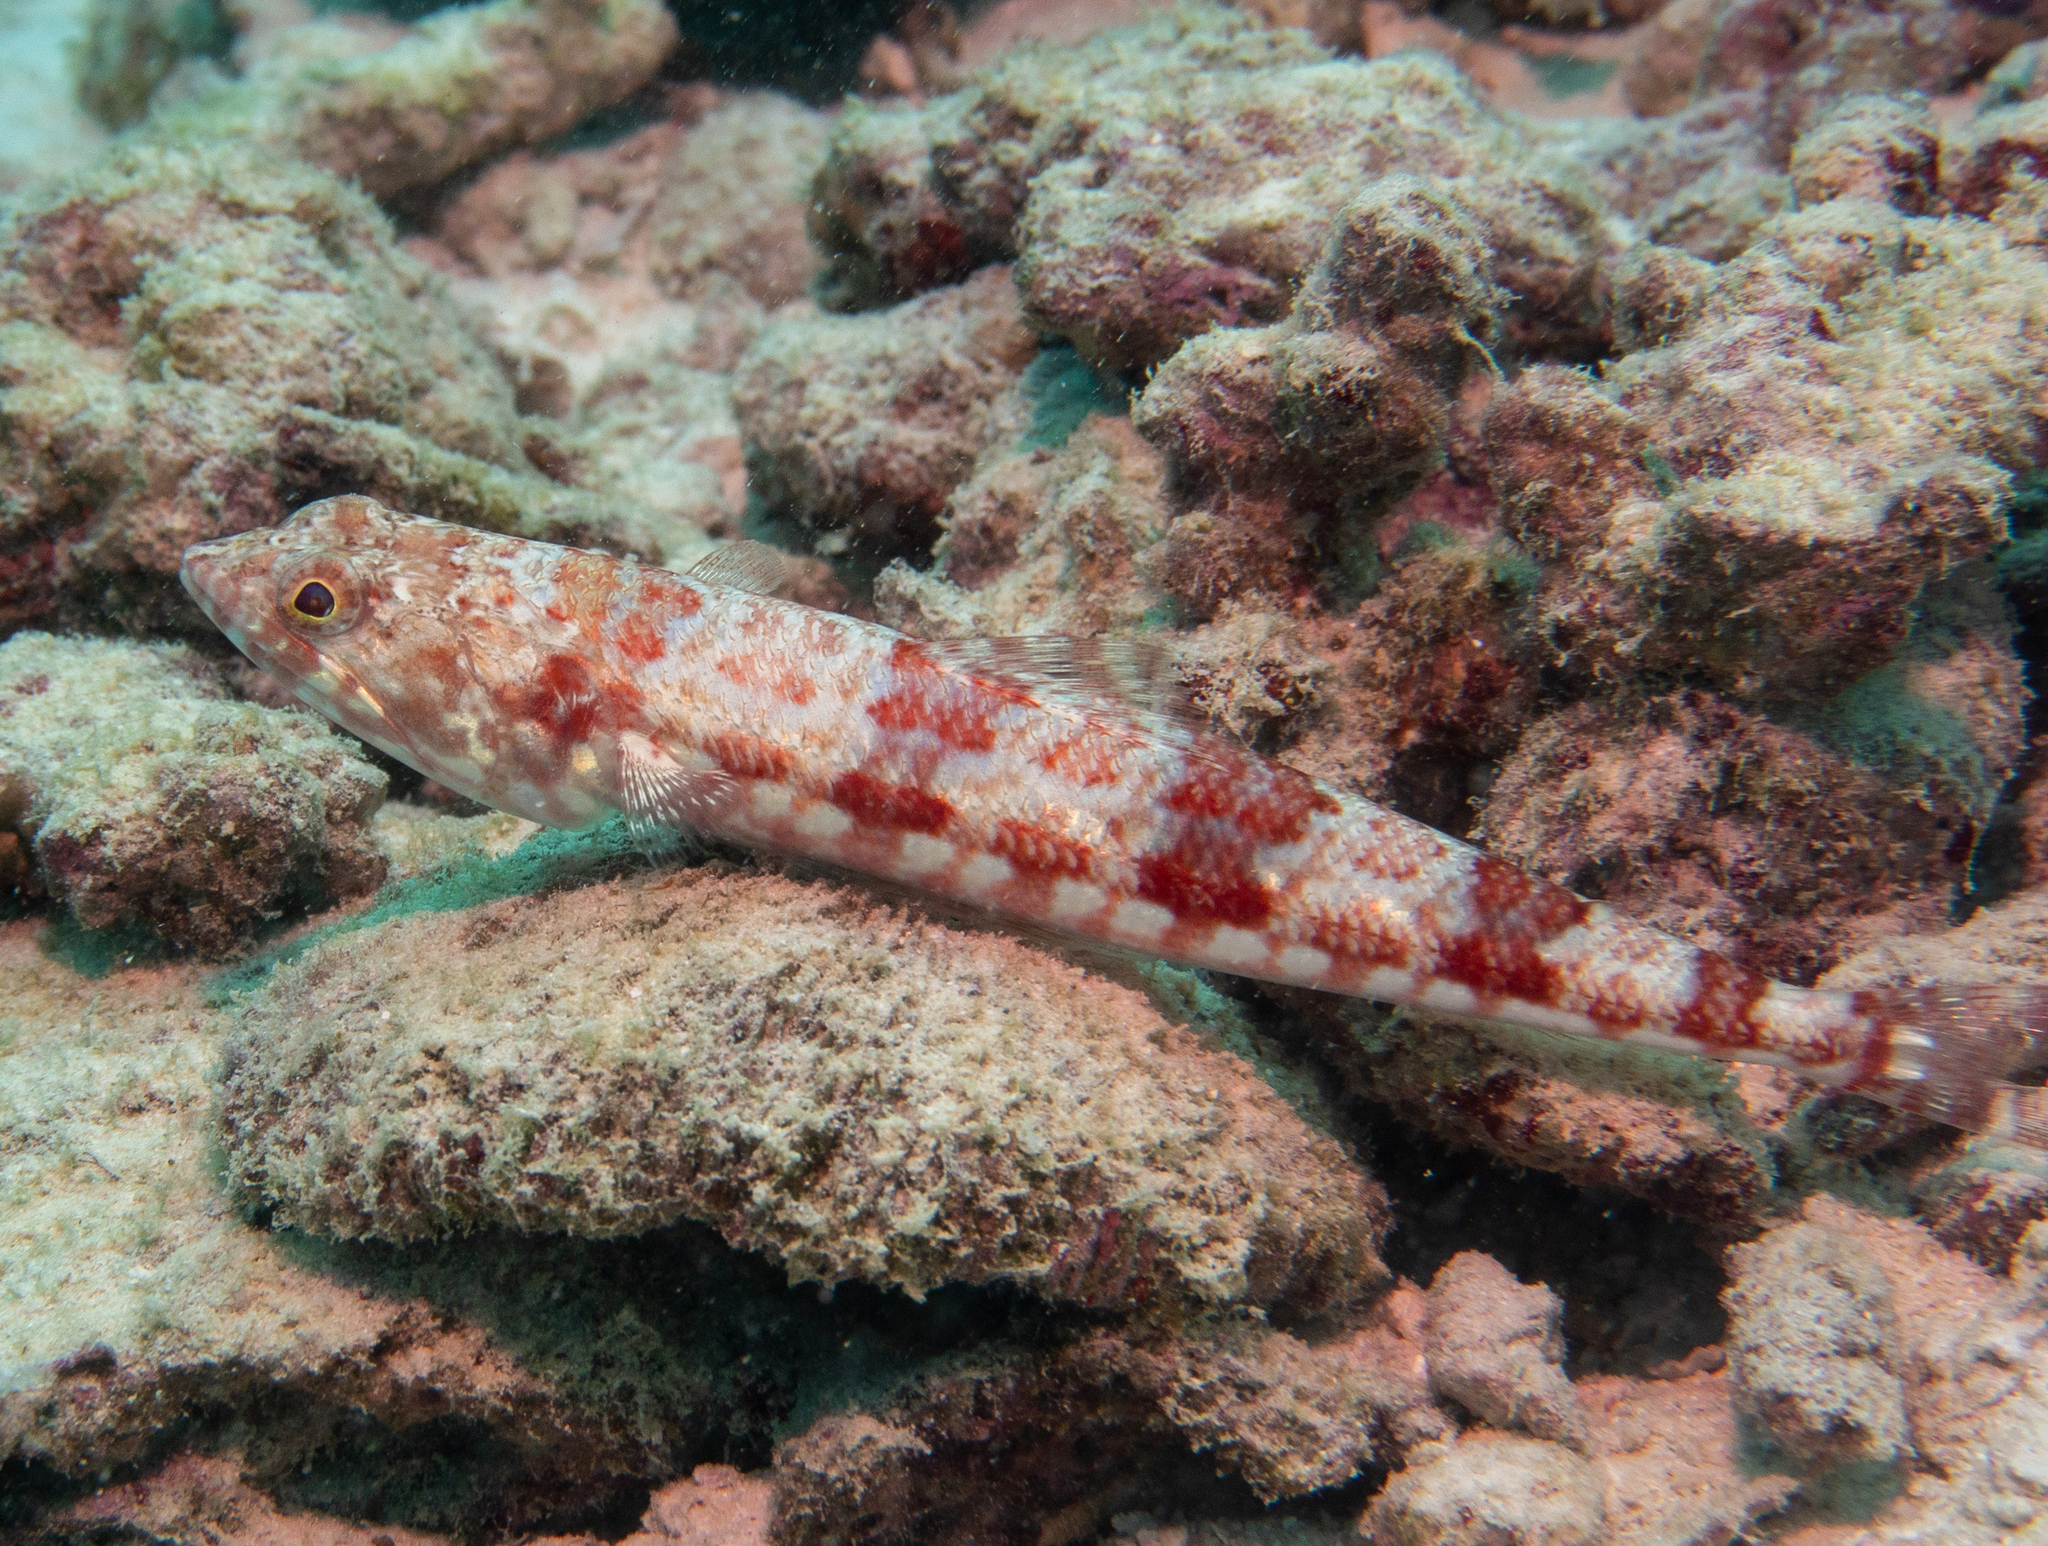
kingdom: Animalia
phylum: Chordata
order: Aulopiformes
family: Synodontidae
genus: Synodus
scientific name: Synodus variegatus
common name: Variegated lizardfish
